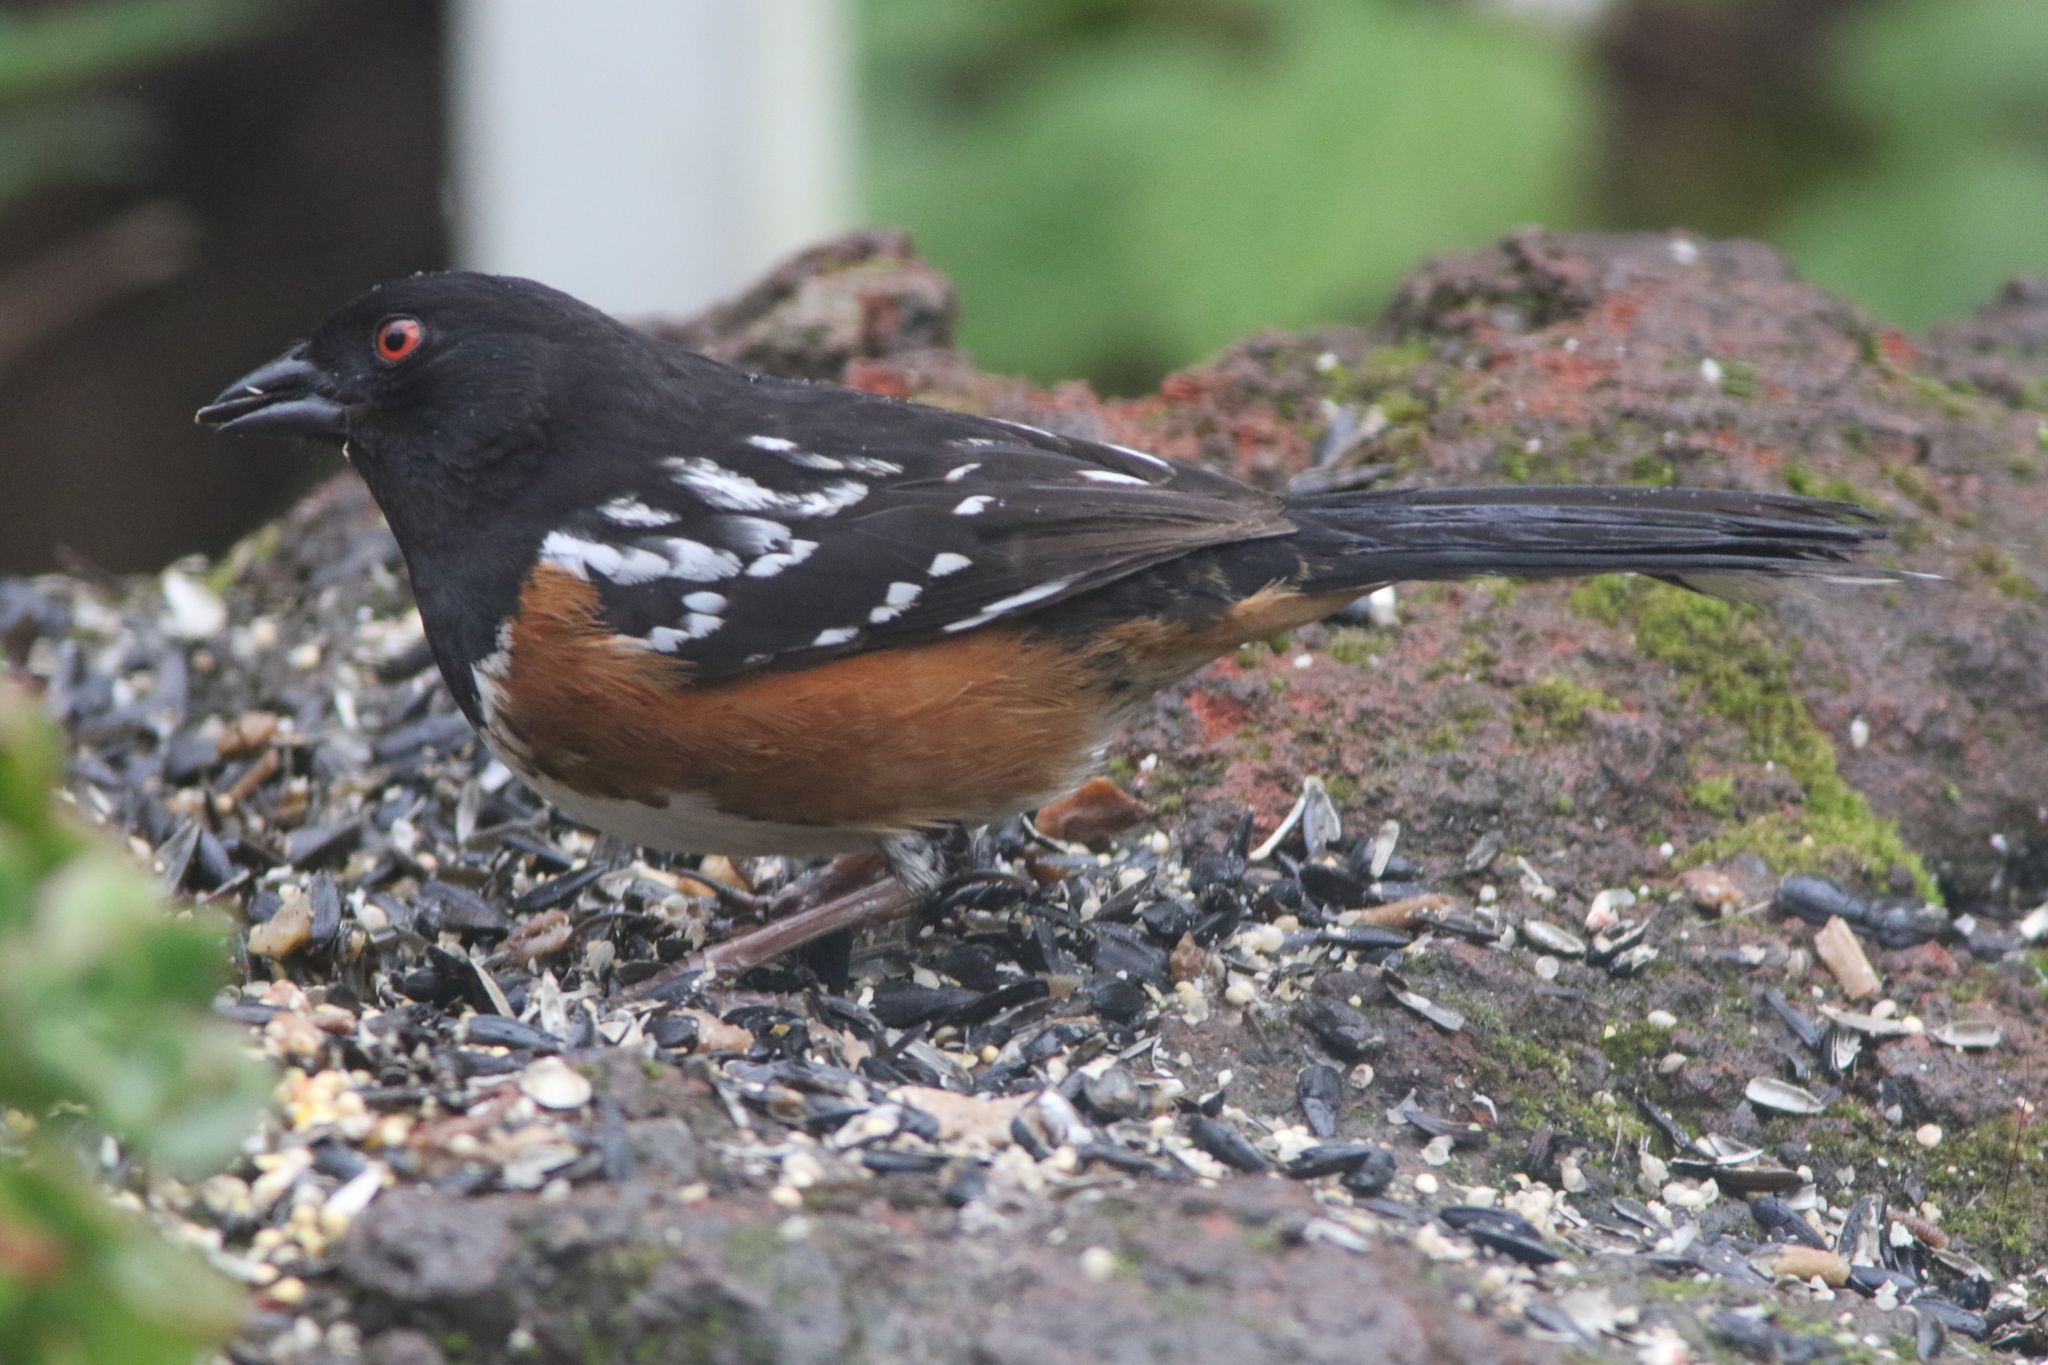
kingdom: Animalia
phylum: Chordata
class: Aves
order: Passeriformes
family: Passerellidae
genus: Pipilo
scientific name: Pipilo maculatus
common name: Spotted towhee
